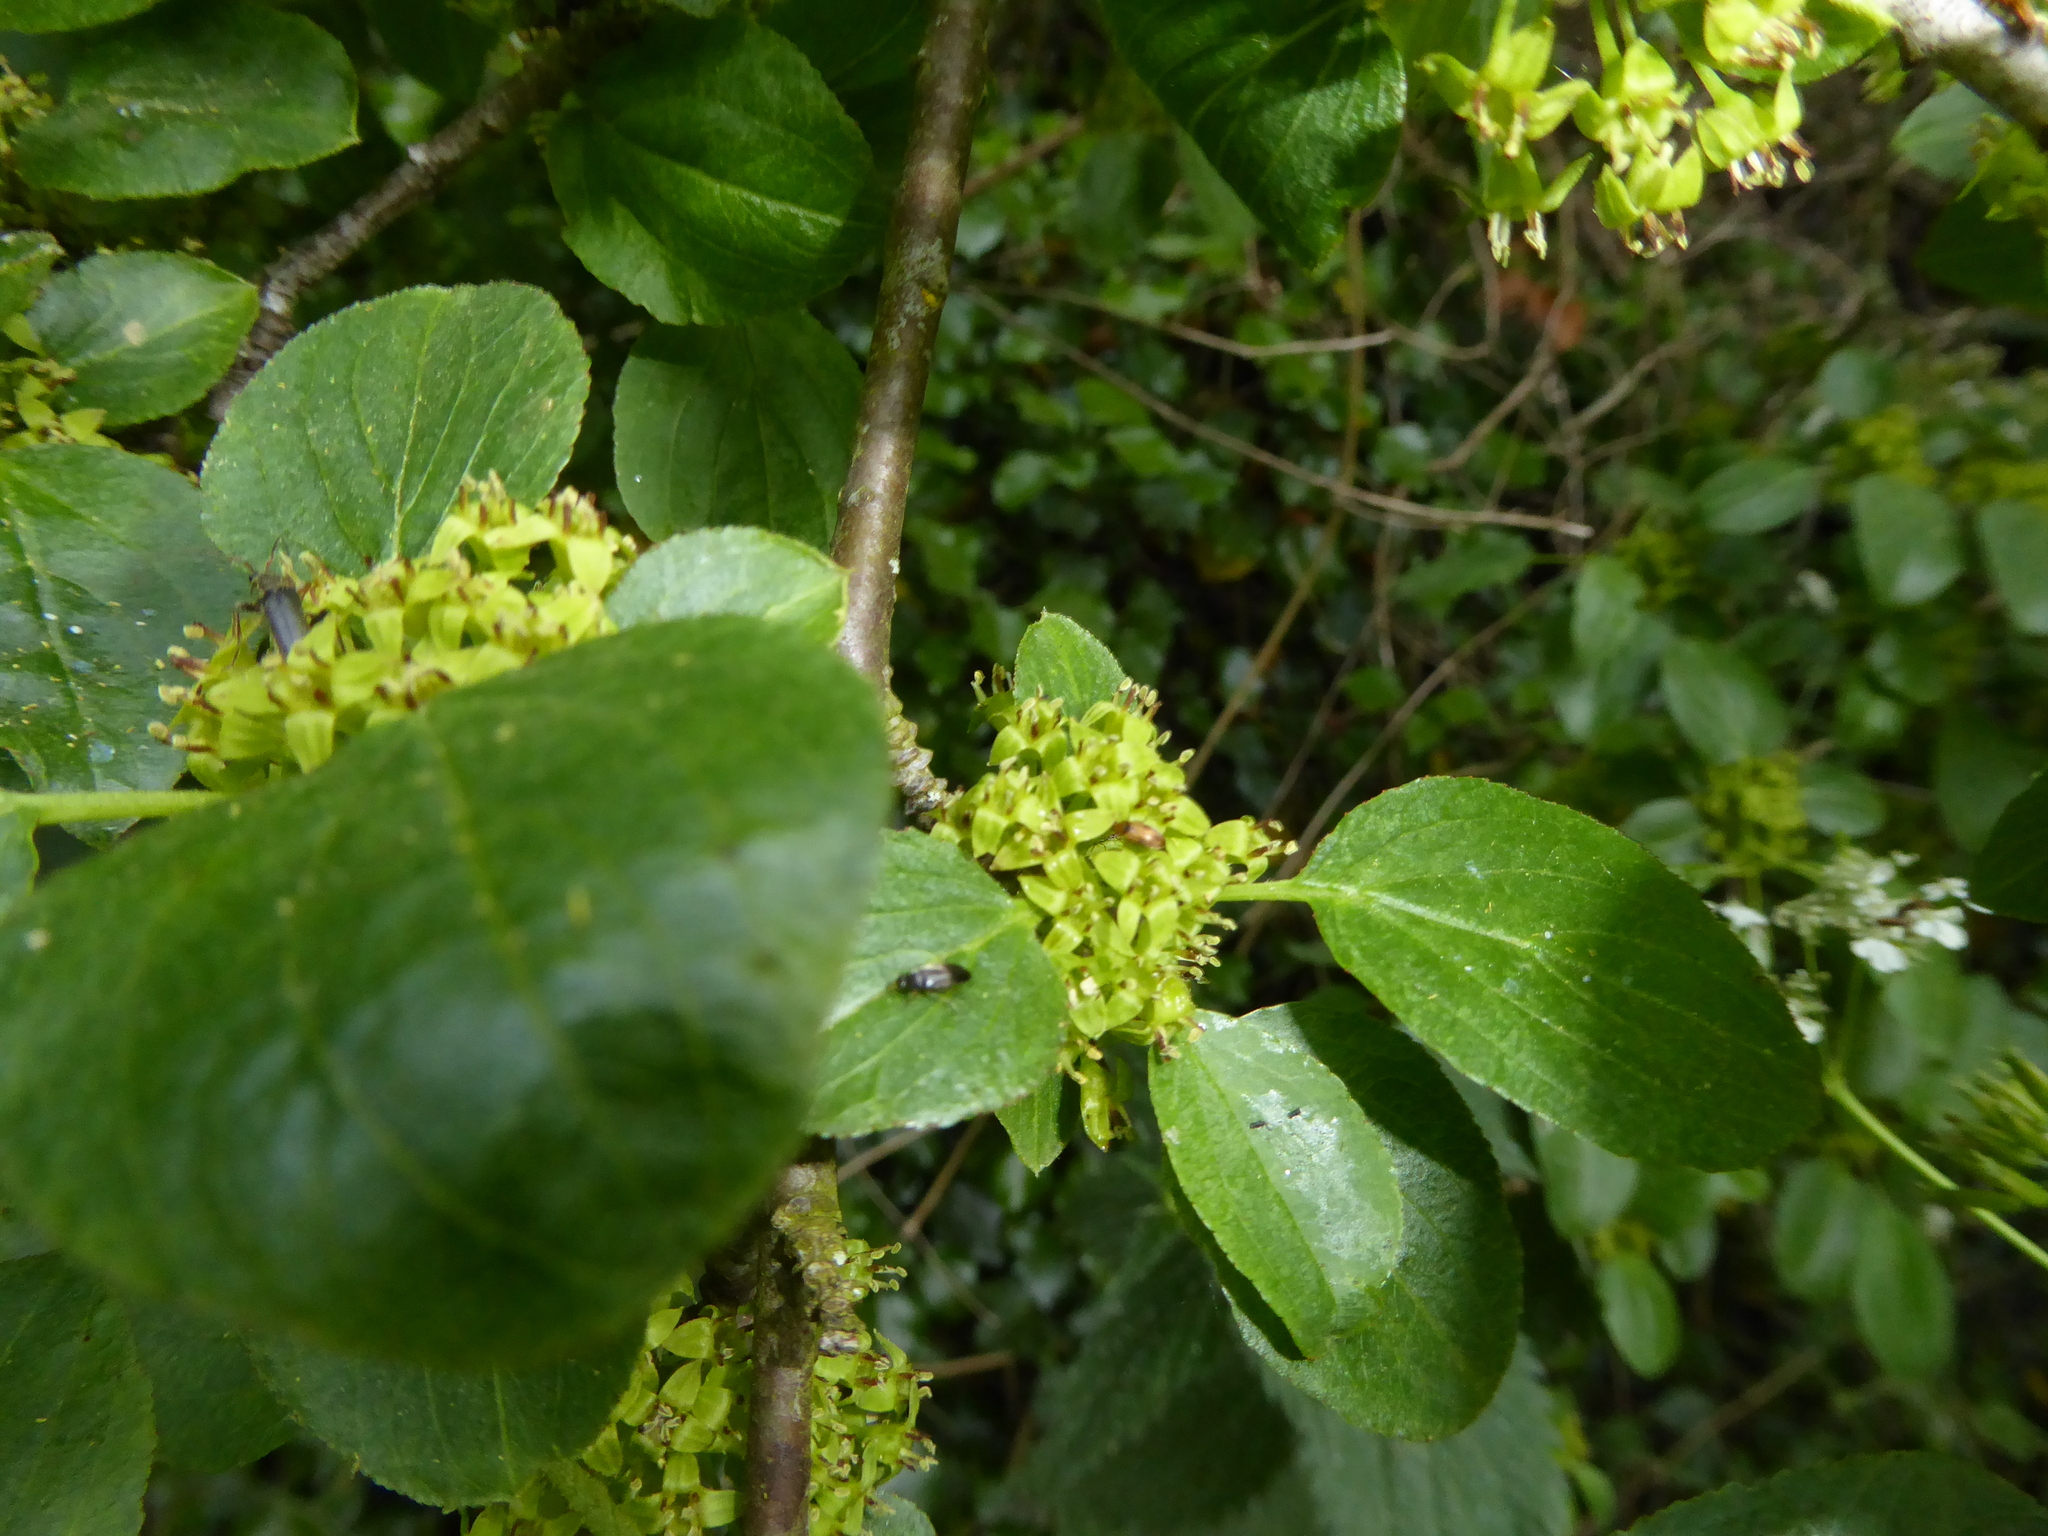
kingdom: Plantae
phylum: Tracheophyta
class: Magnoliopsida
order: Rosales
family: Rhamnaceae
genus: Rhamnus
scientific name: Rhamnus cathartica
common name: Common buckthorn
